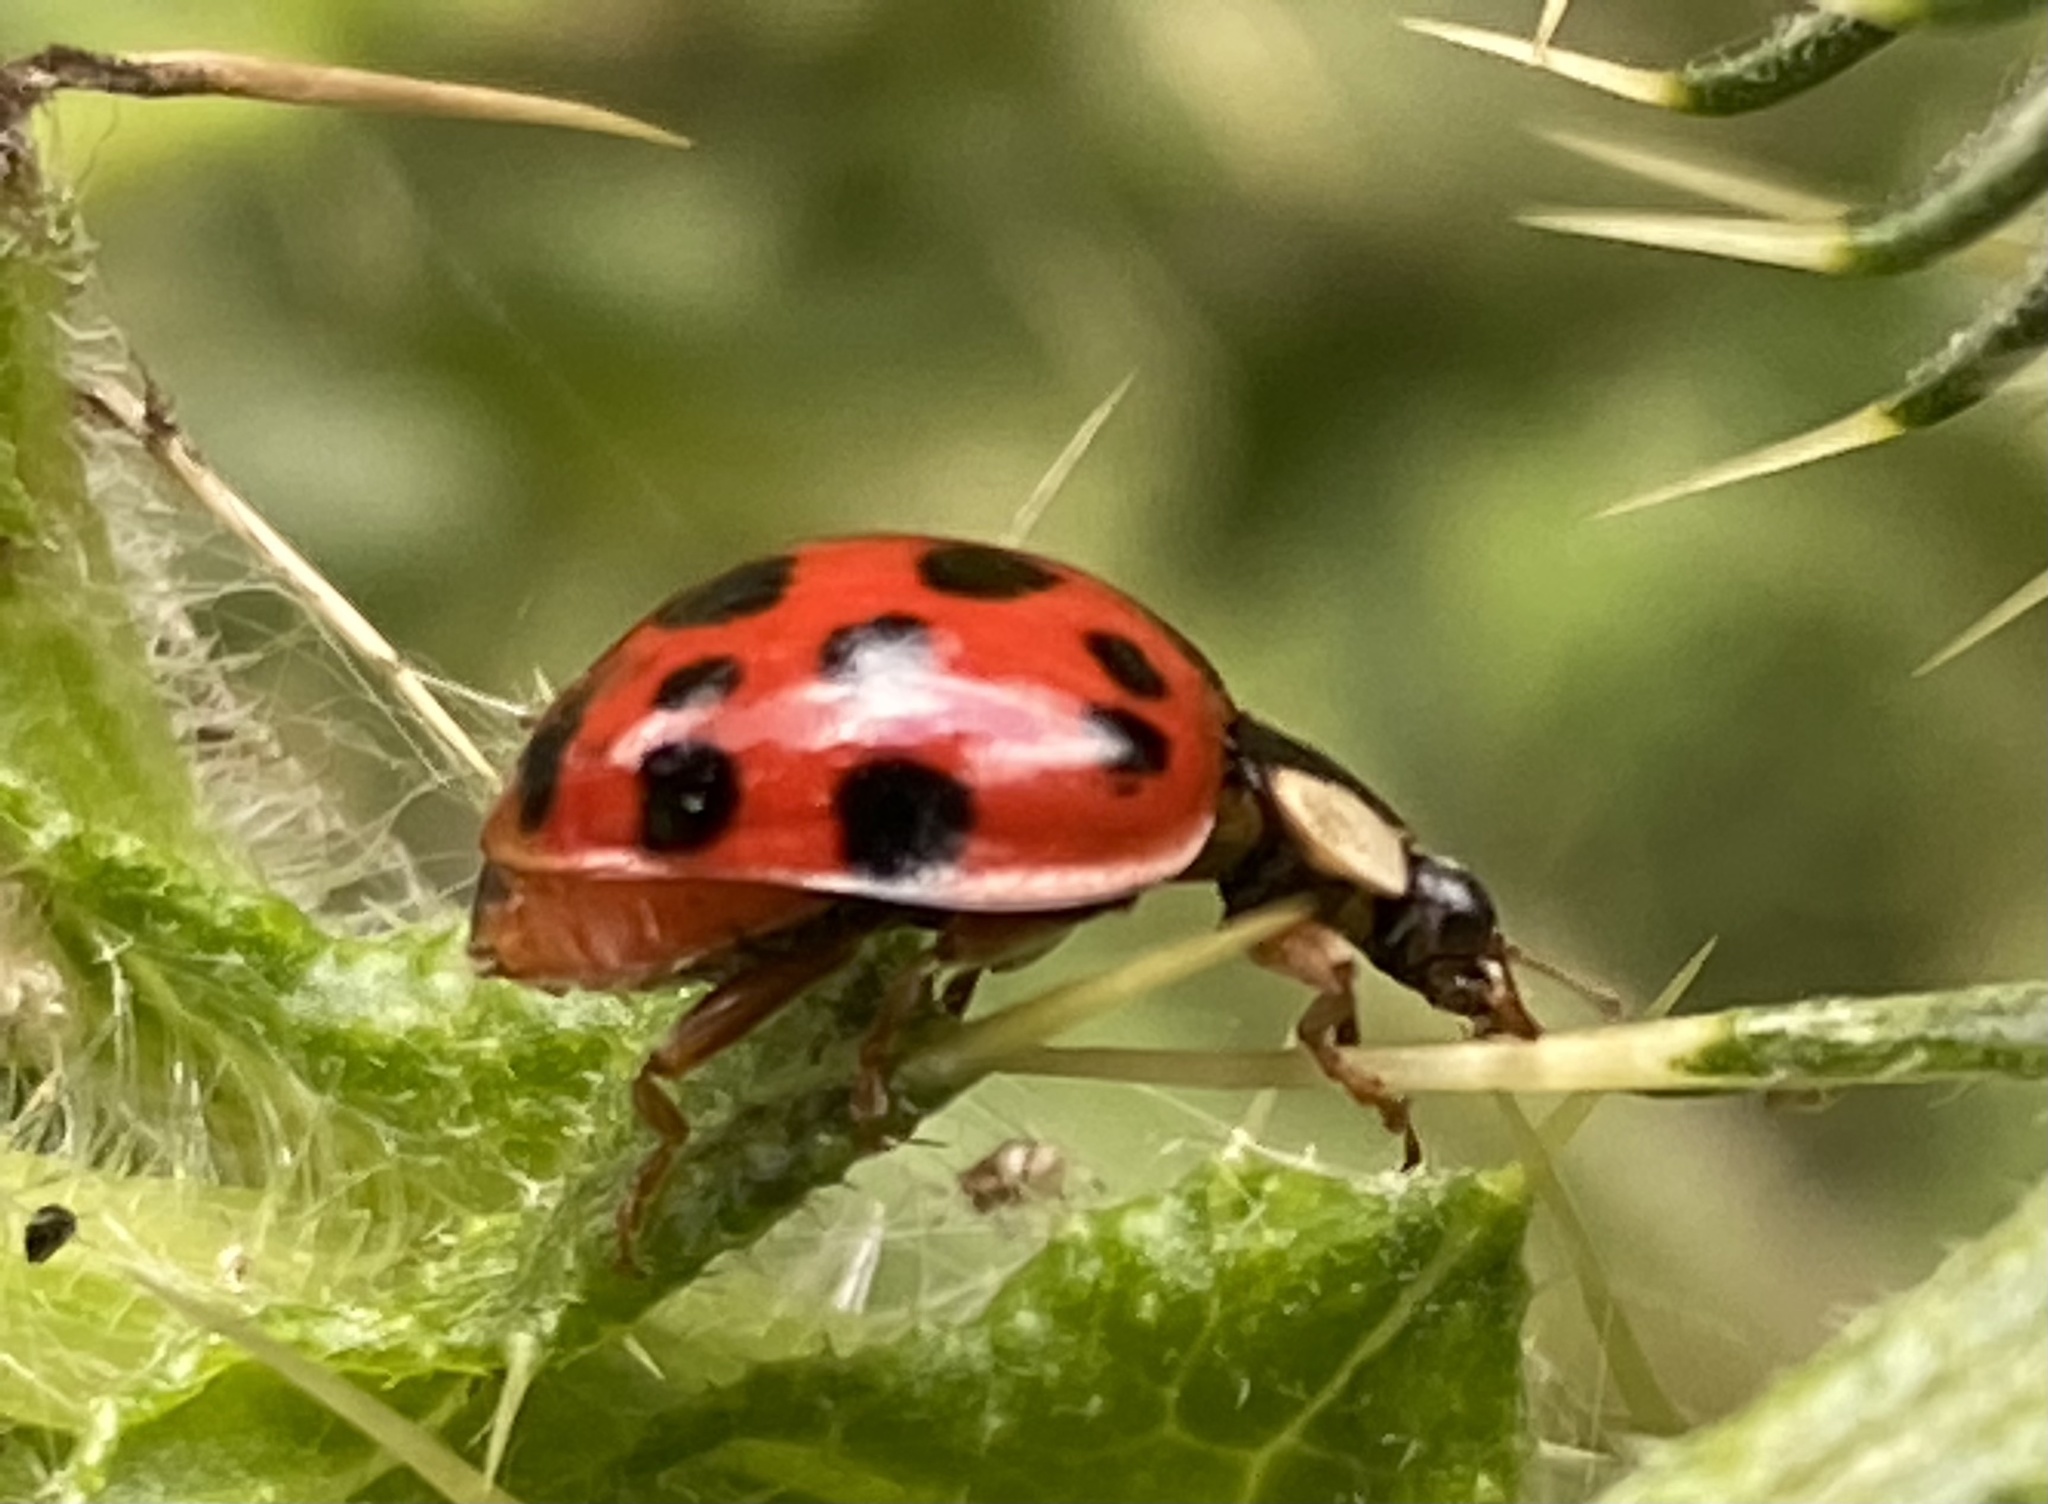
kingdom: Animalia
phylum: Arthropoda
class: Insecta
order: Coleoptera
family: Coccinellidae
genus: Harmonia
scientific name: Harmonia axyridis
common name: Harlequin ladybird
